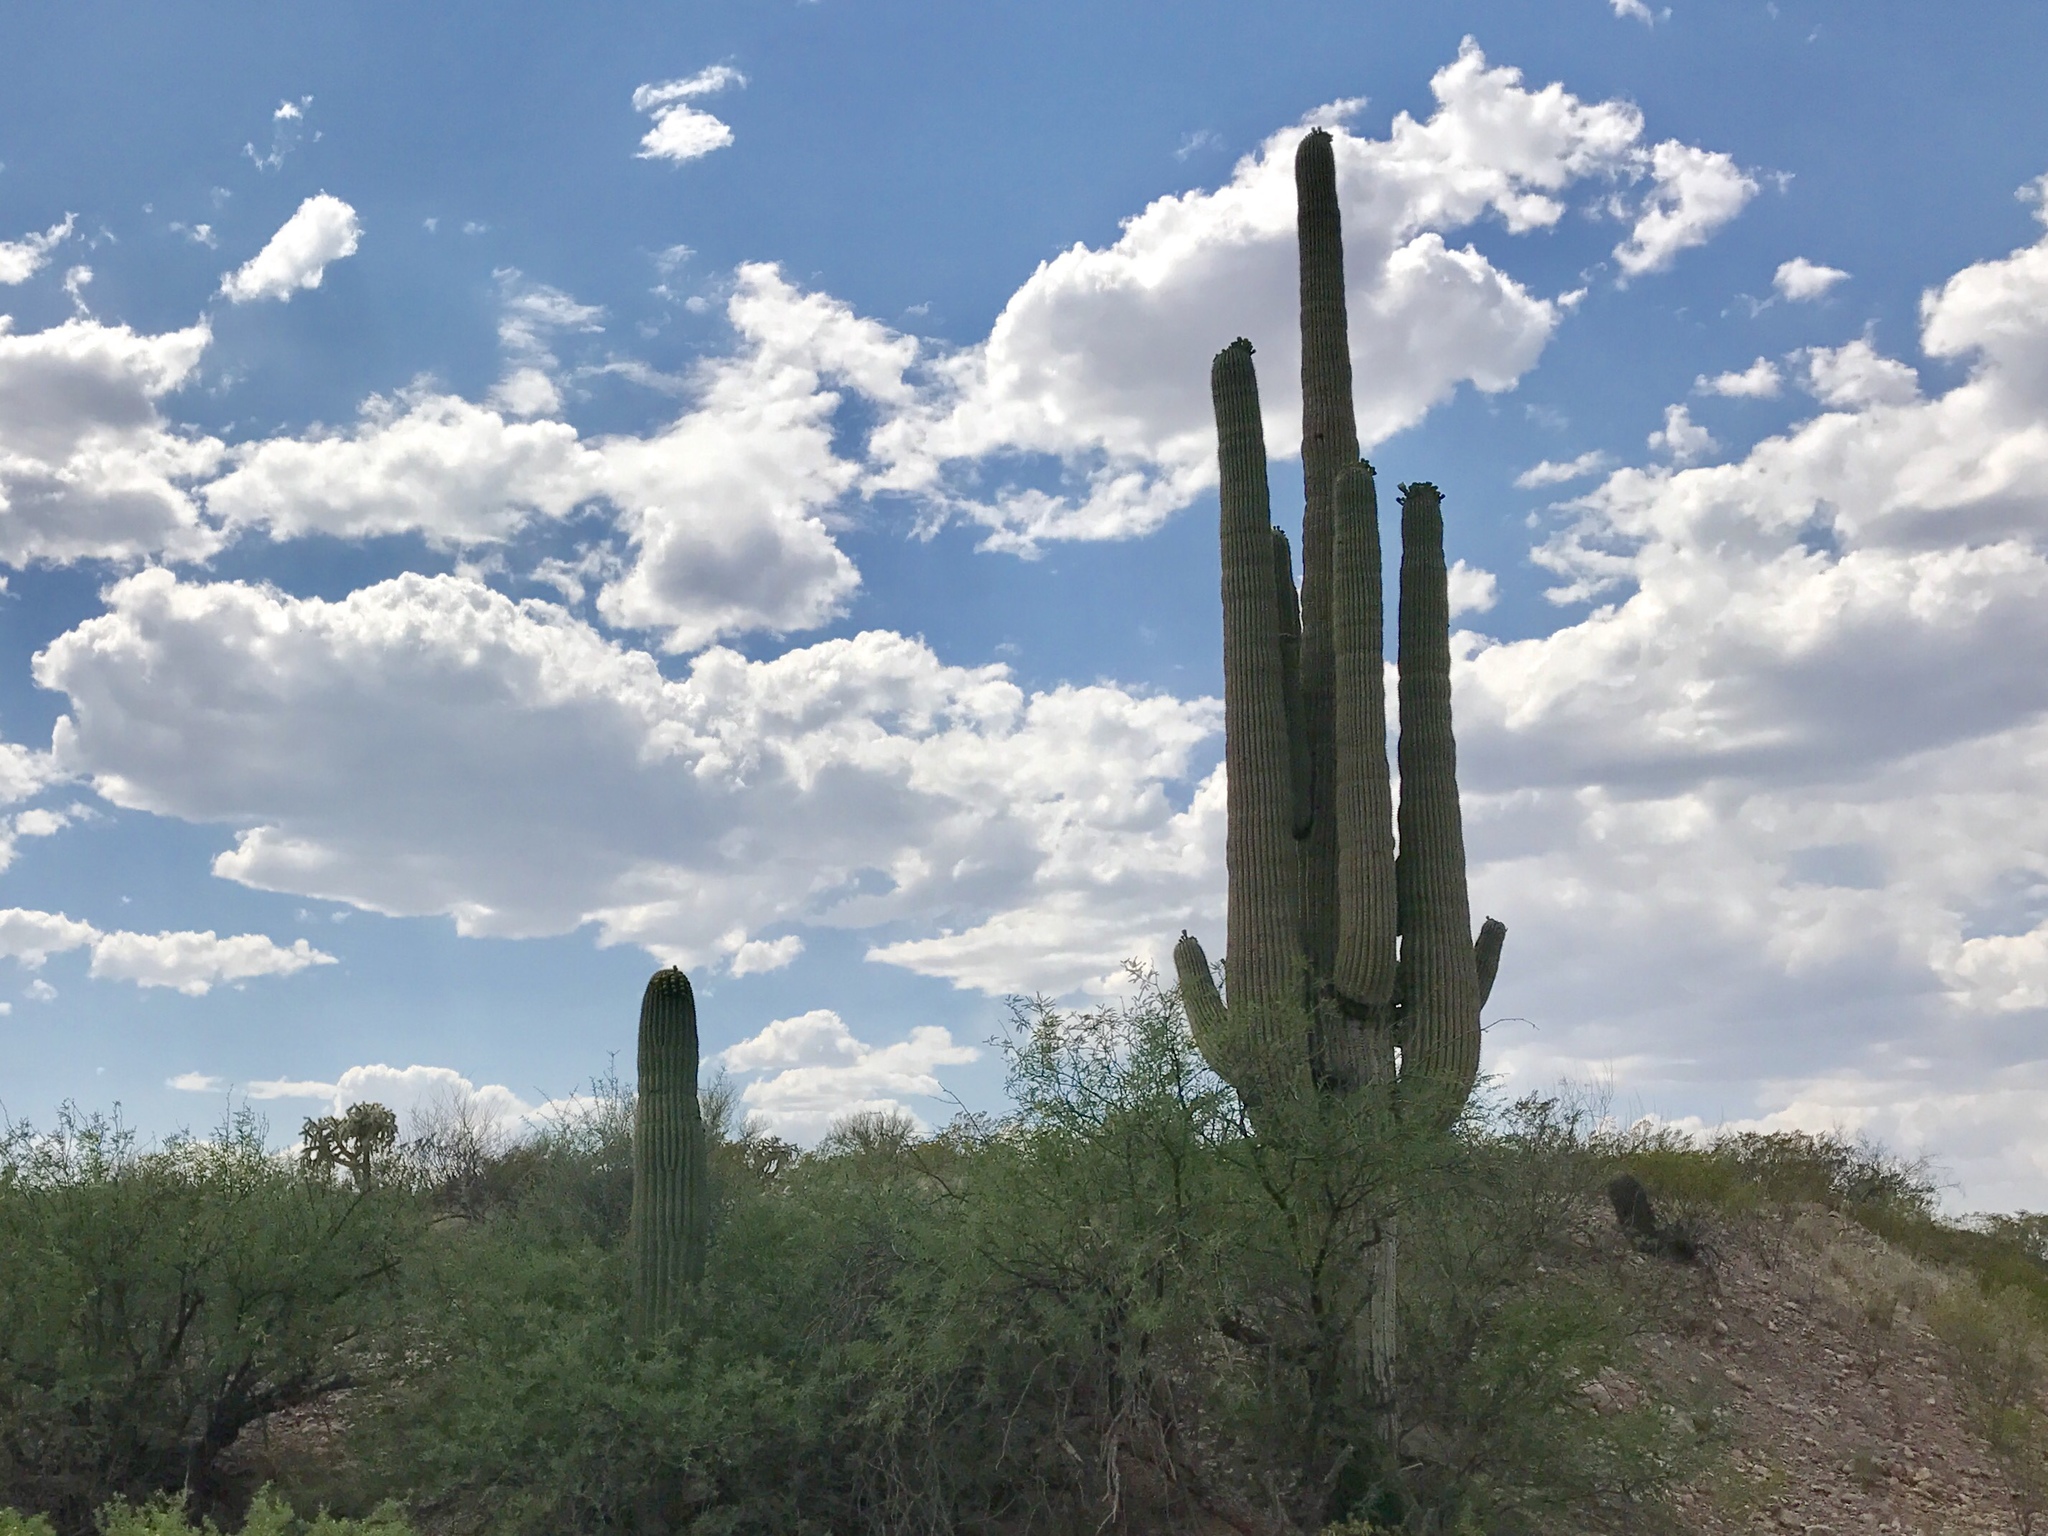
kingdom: Plantae
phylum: Tracheophyta
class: Magnoliopsida
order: Caryophyllales
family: Cactaceae
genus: Carnegiea
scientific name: Carnegiea gigantea
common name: Saguaro
